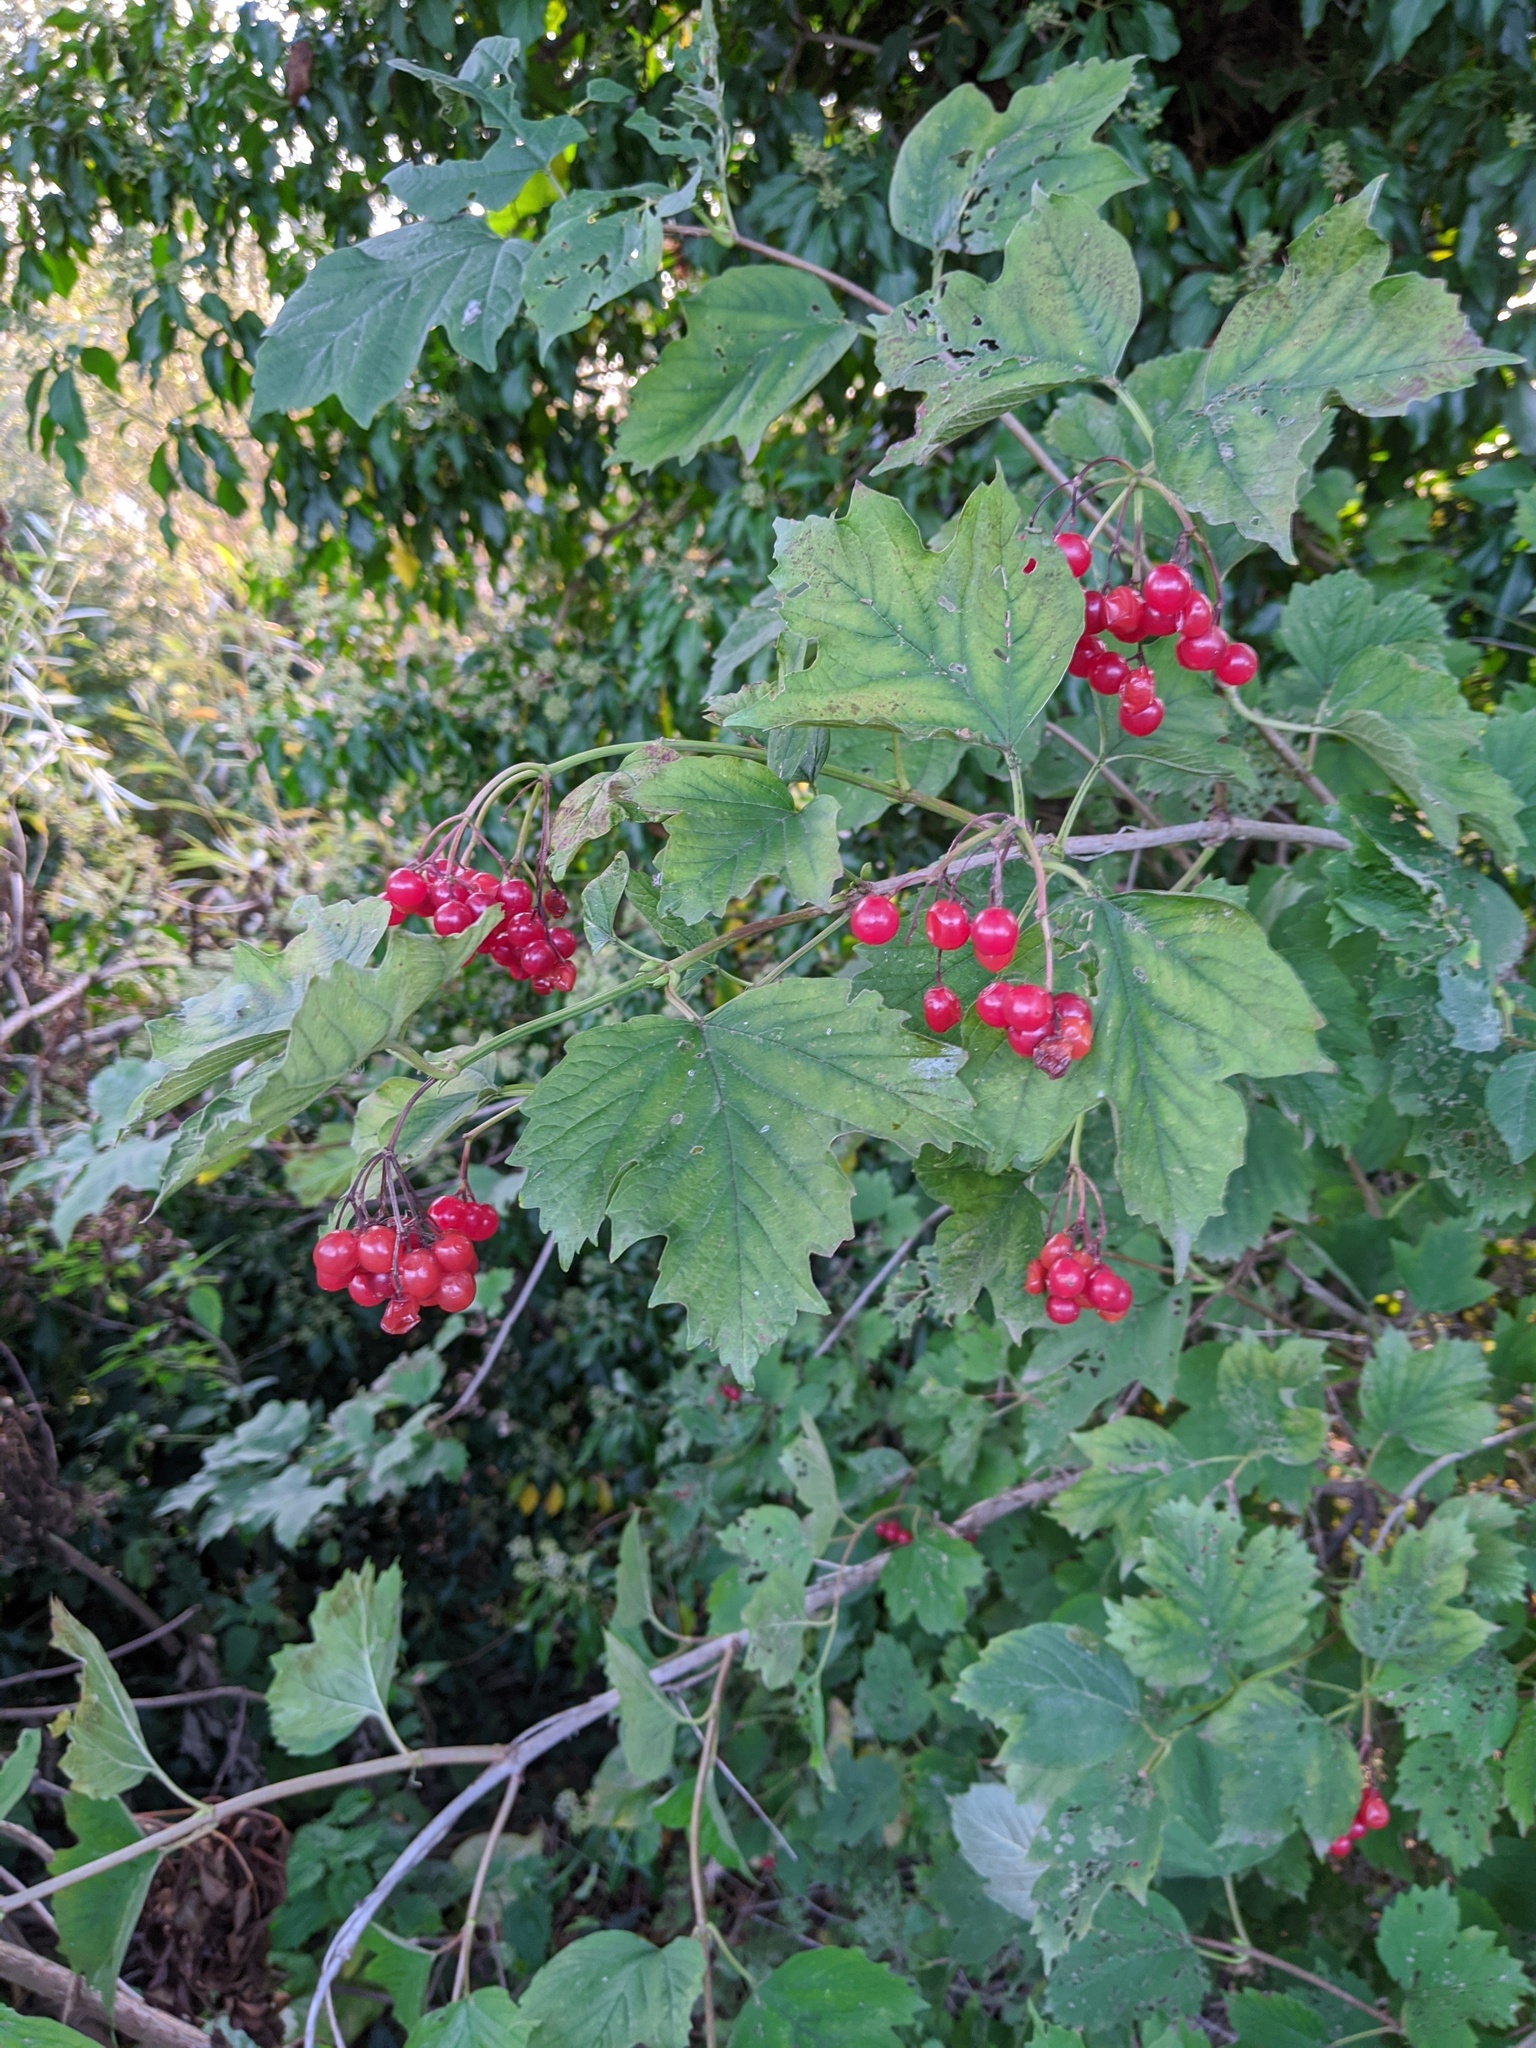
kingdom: Plantae
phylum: Tracheophyta
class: Magnoliopsida
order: Dipsacales
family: Viburnaceae
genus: Viburnum
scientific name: Viburnum opulus
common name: Guelder-rose
